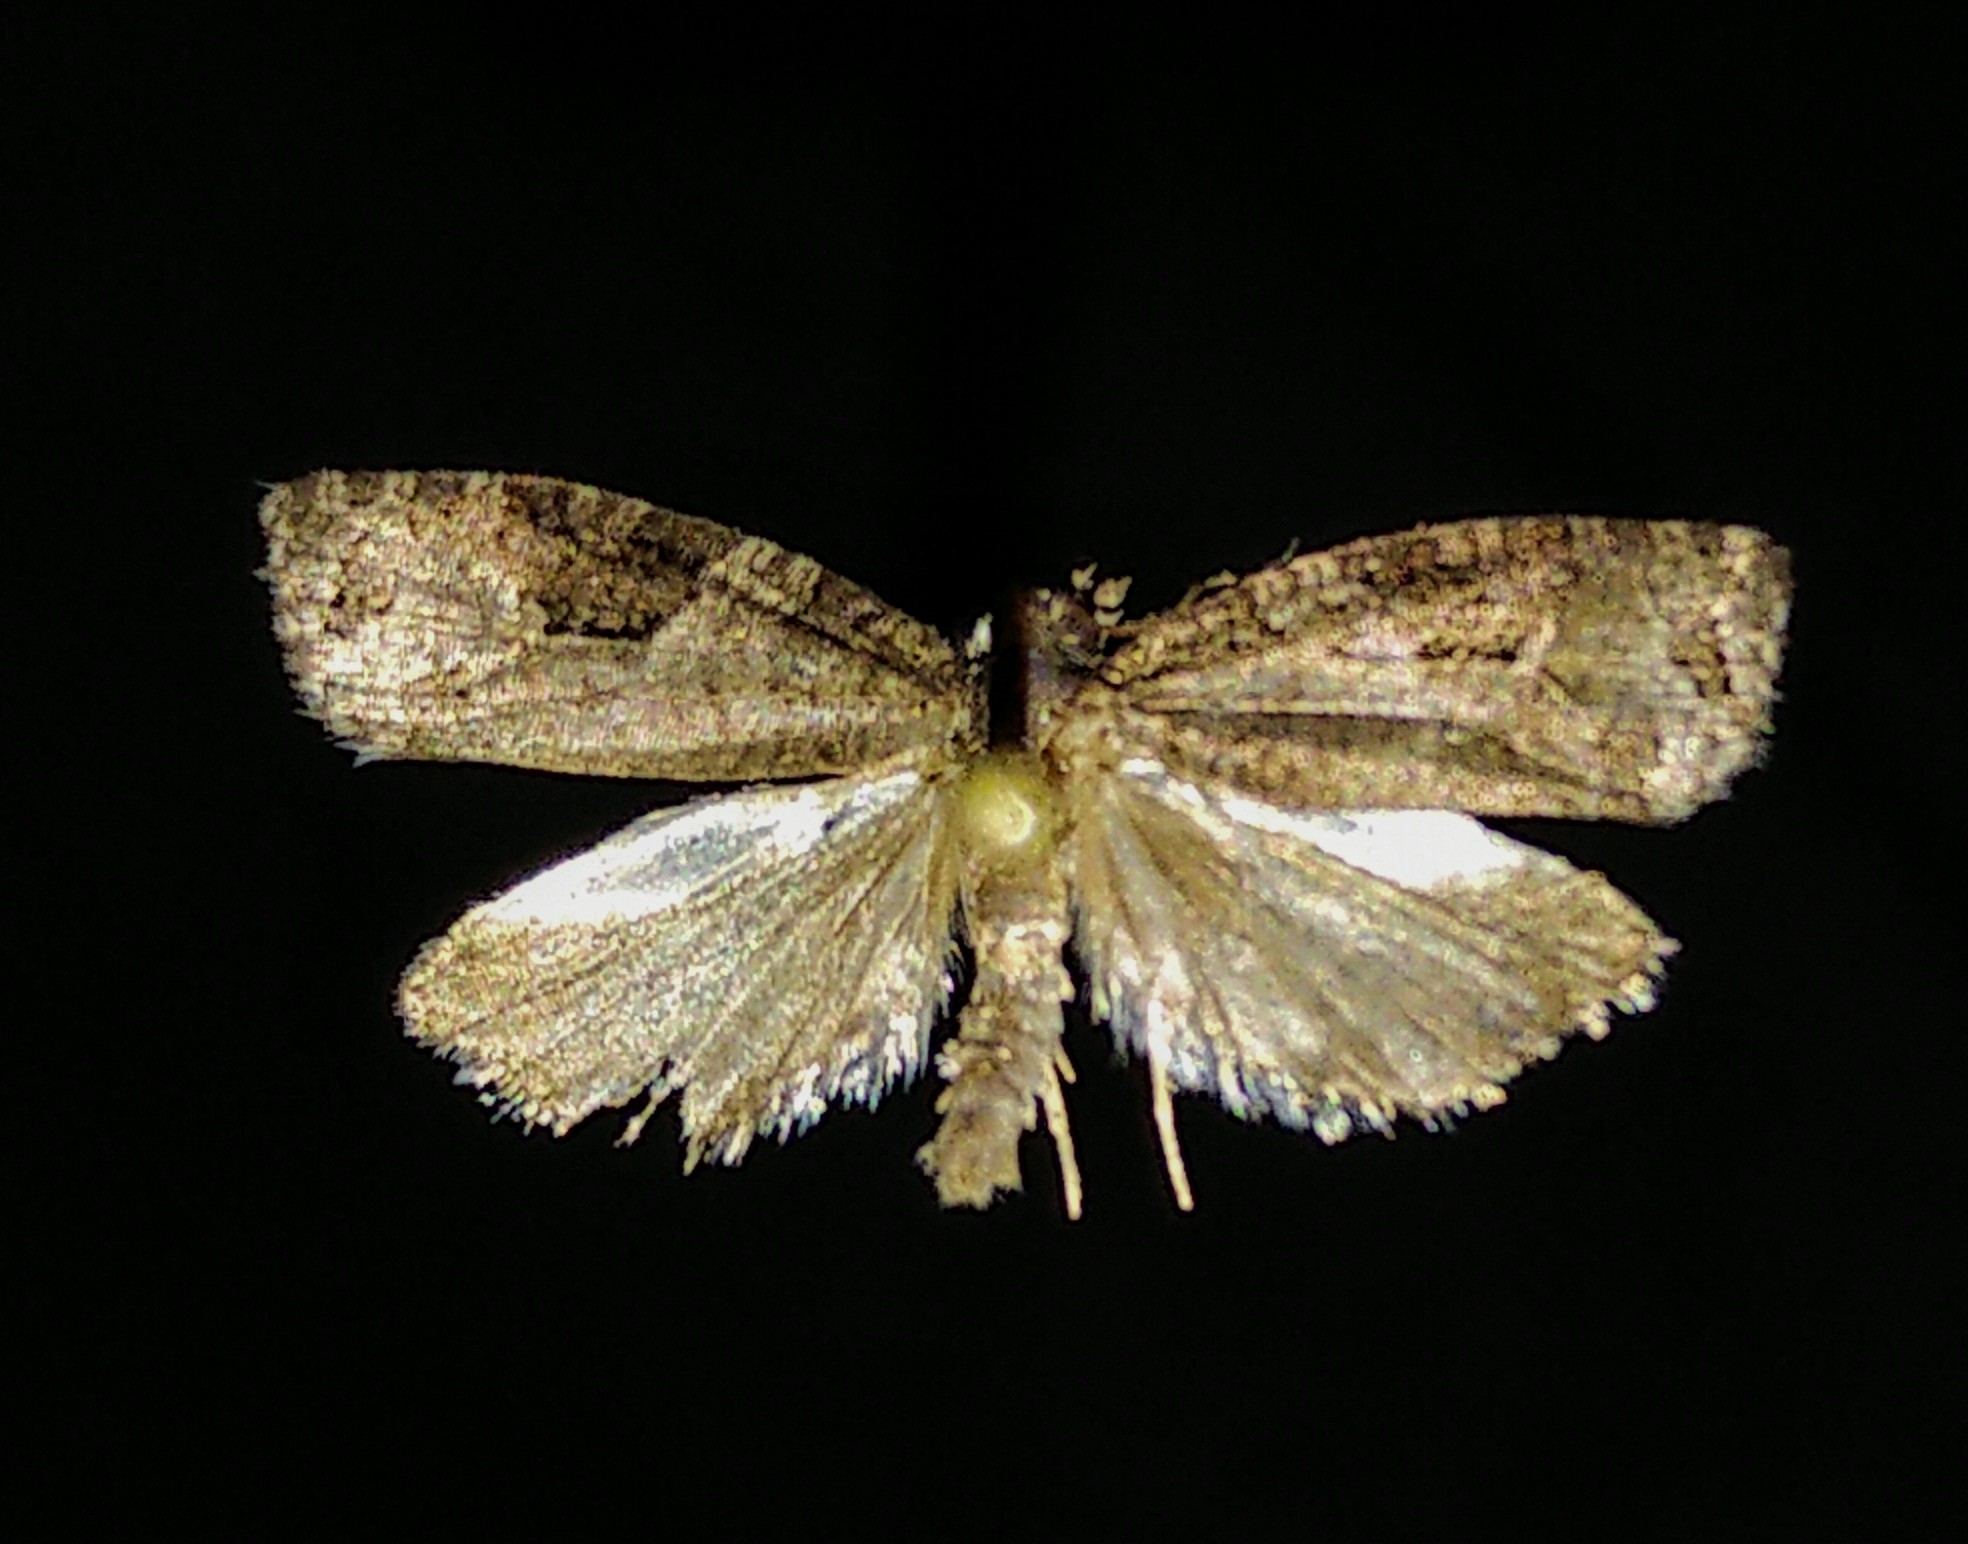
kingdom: Animalia
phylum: Arthropoda
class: Insecta
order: Lepidoptera
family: Tortricidae
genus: Apotomis
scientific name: Apotomis infida
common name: Rannoch marble
